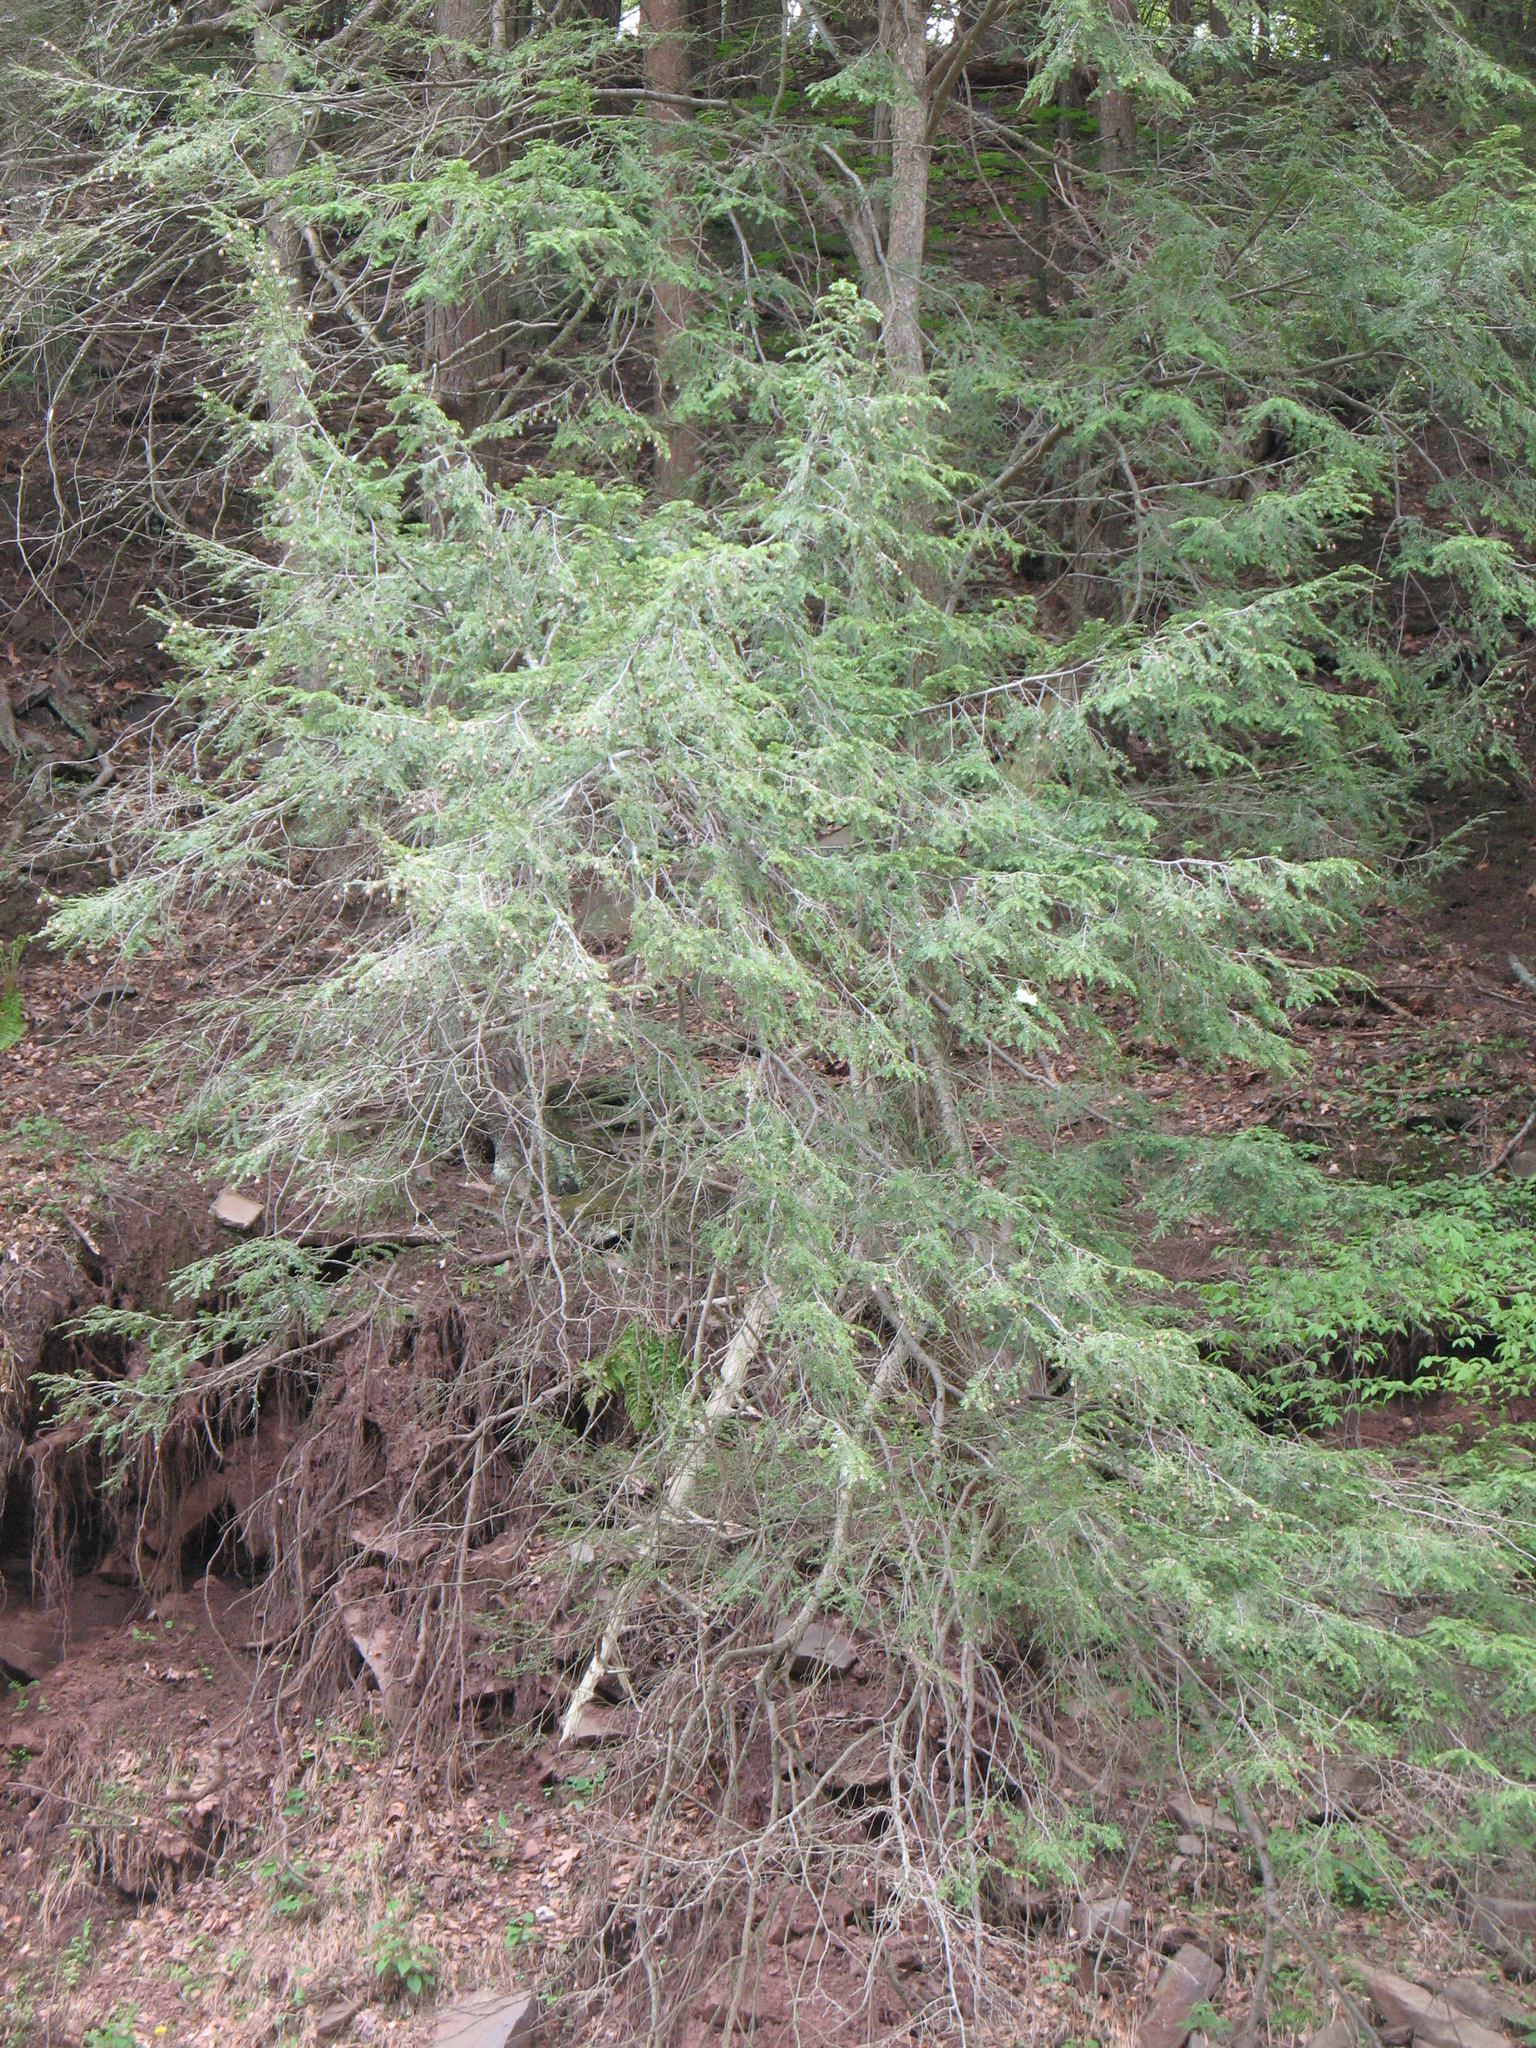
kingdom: Plantae
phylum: Tracheophyta
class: Pinopsida
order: Pinales
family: Pinaceae
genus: Tsuga
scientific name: Tsuga canadensis
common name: Eastern hemlock
